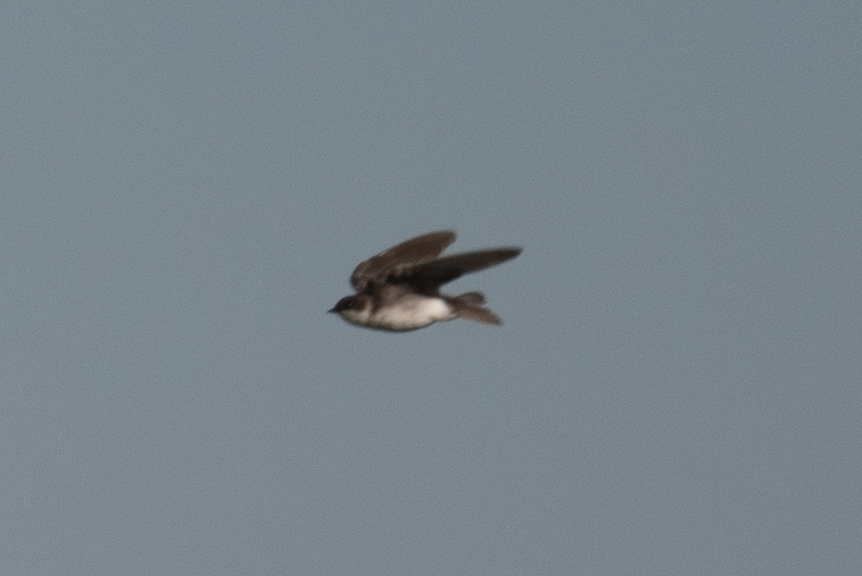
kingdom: Animalia
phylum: Chordata
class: Aves
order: Passeriformes
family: Hirundinidae
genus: Tachycineta
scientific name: Tachycineta bicolor
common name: Tree swallow
